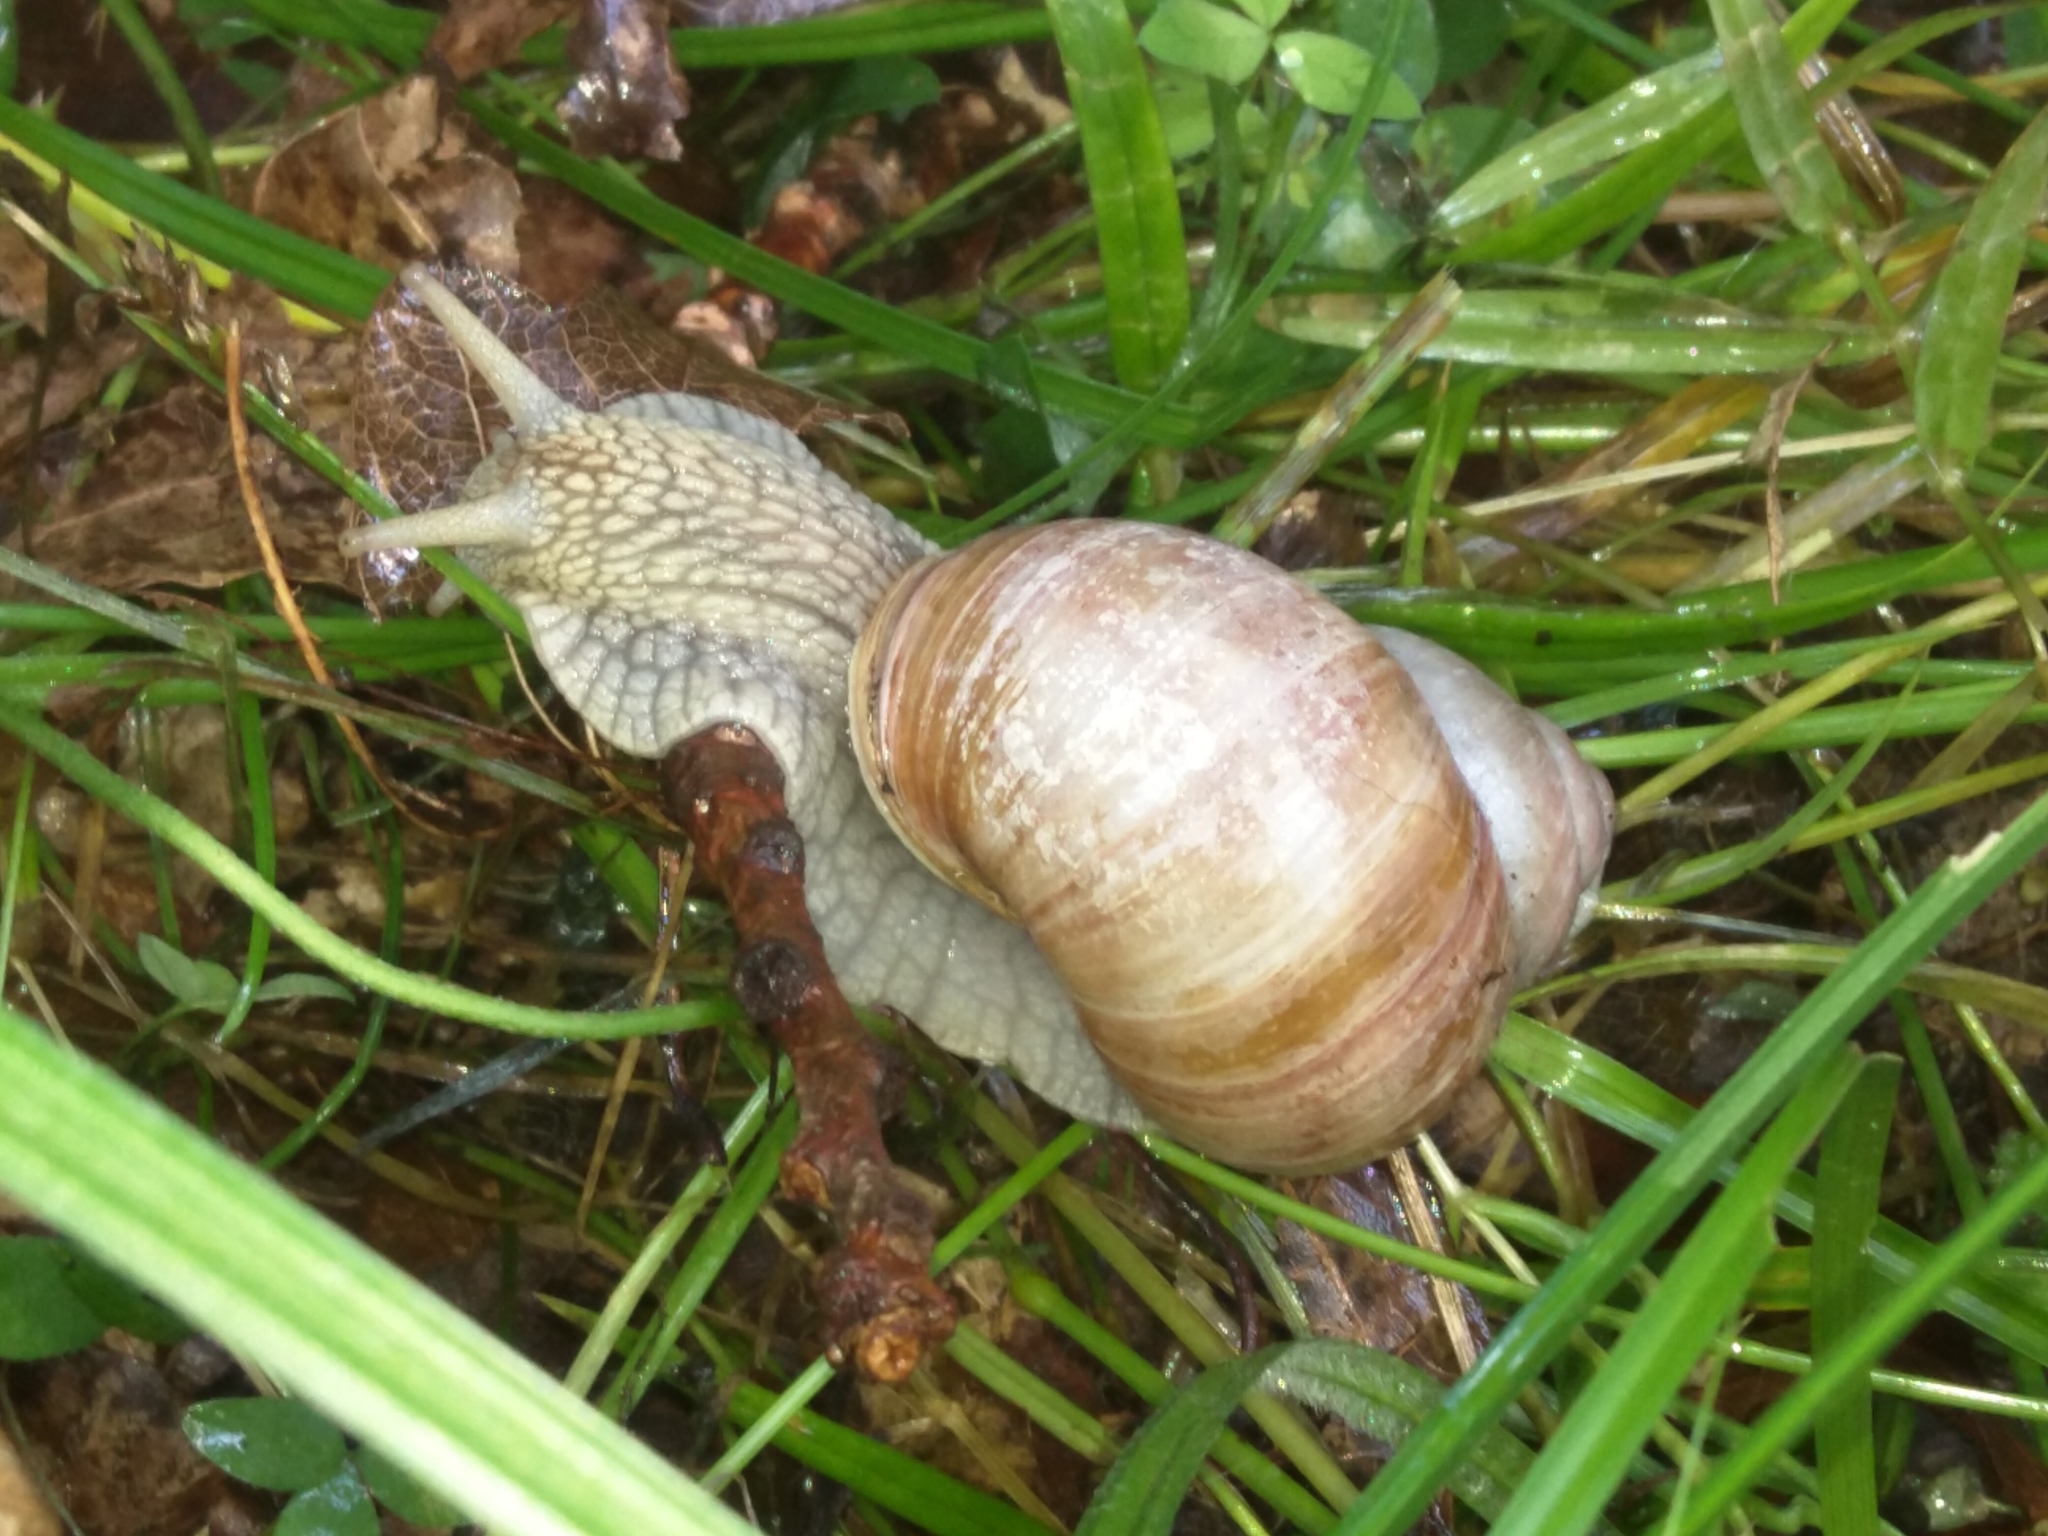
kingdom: Animalia
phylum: Mollusca
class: Gastropoda
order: Stylommatophora
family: Helicidae
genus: Helix
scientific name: Helix pomatia
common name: Roman snail
